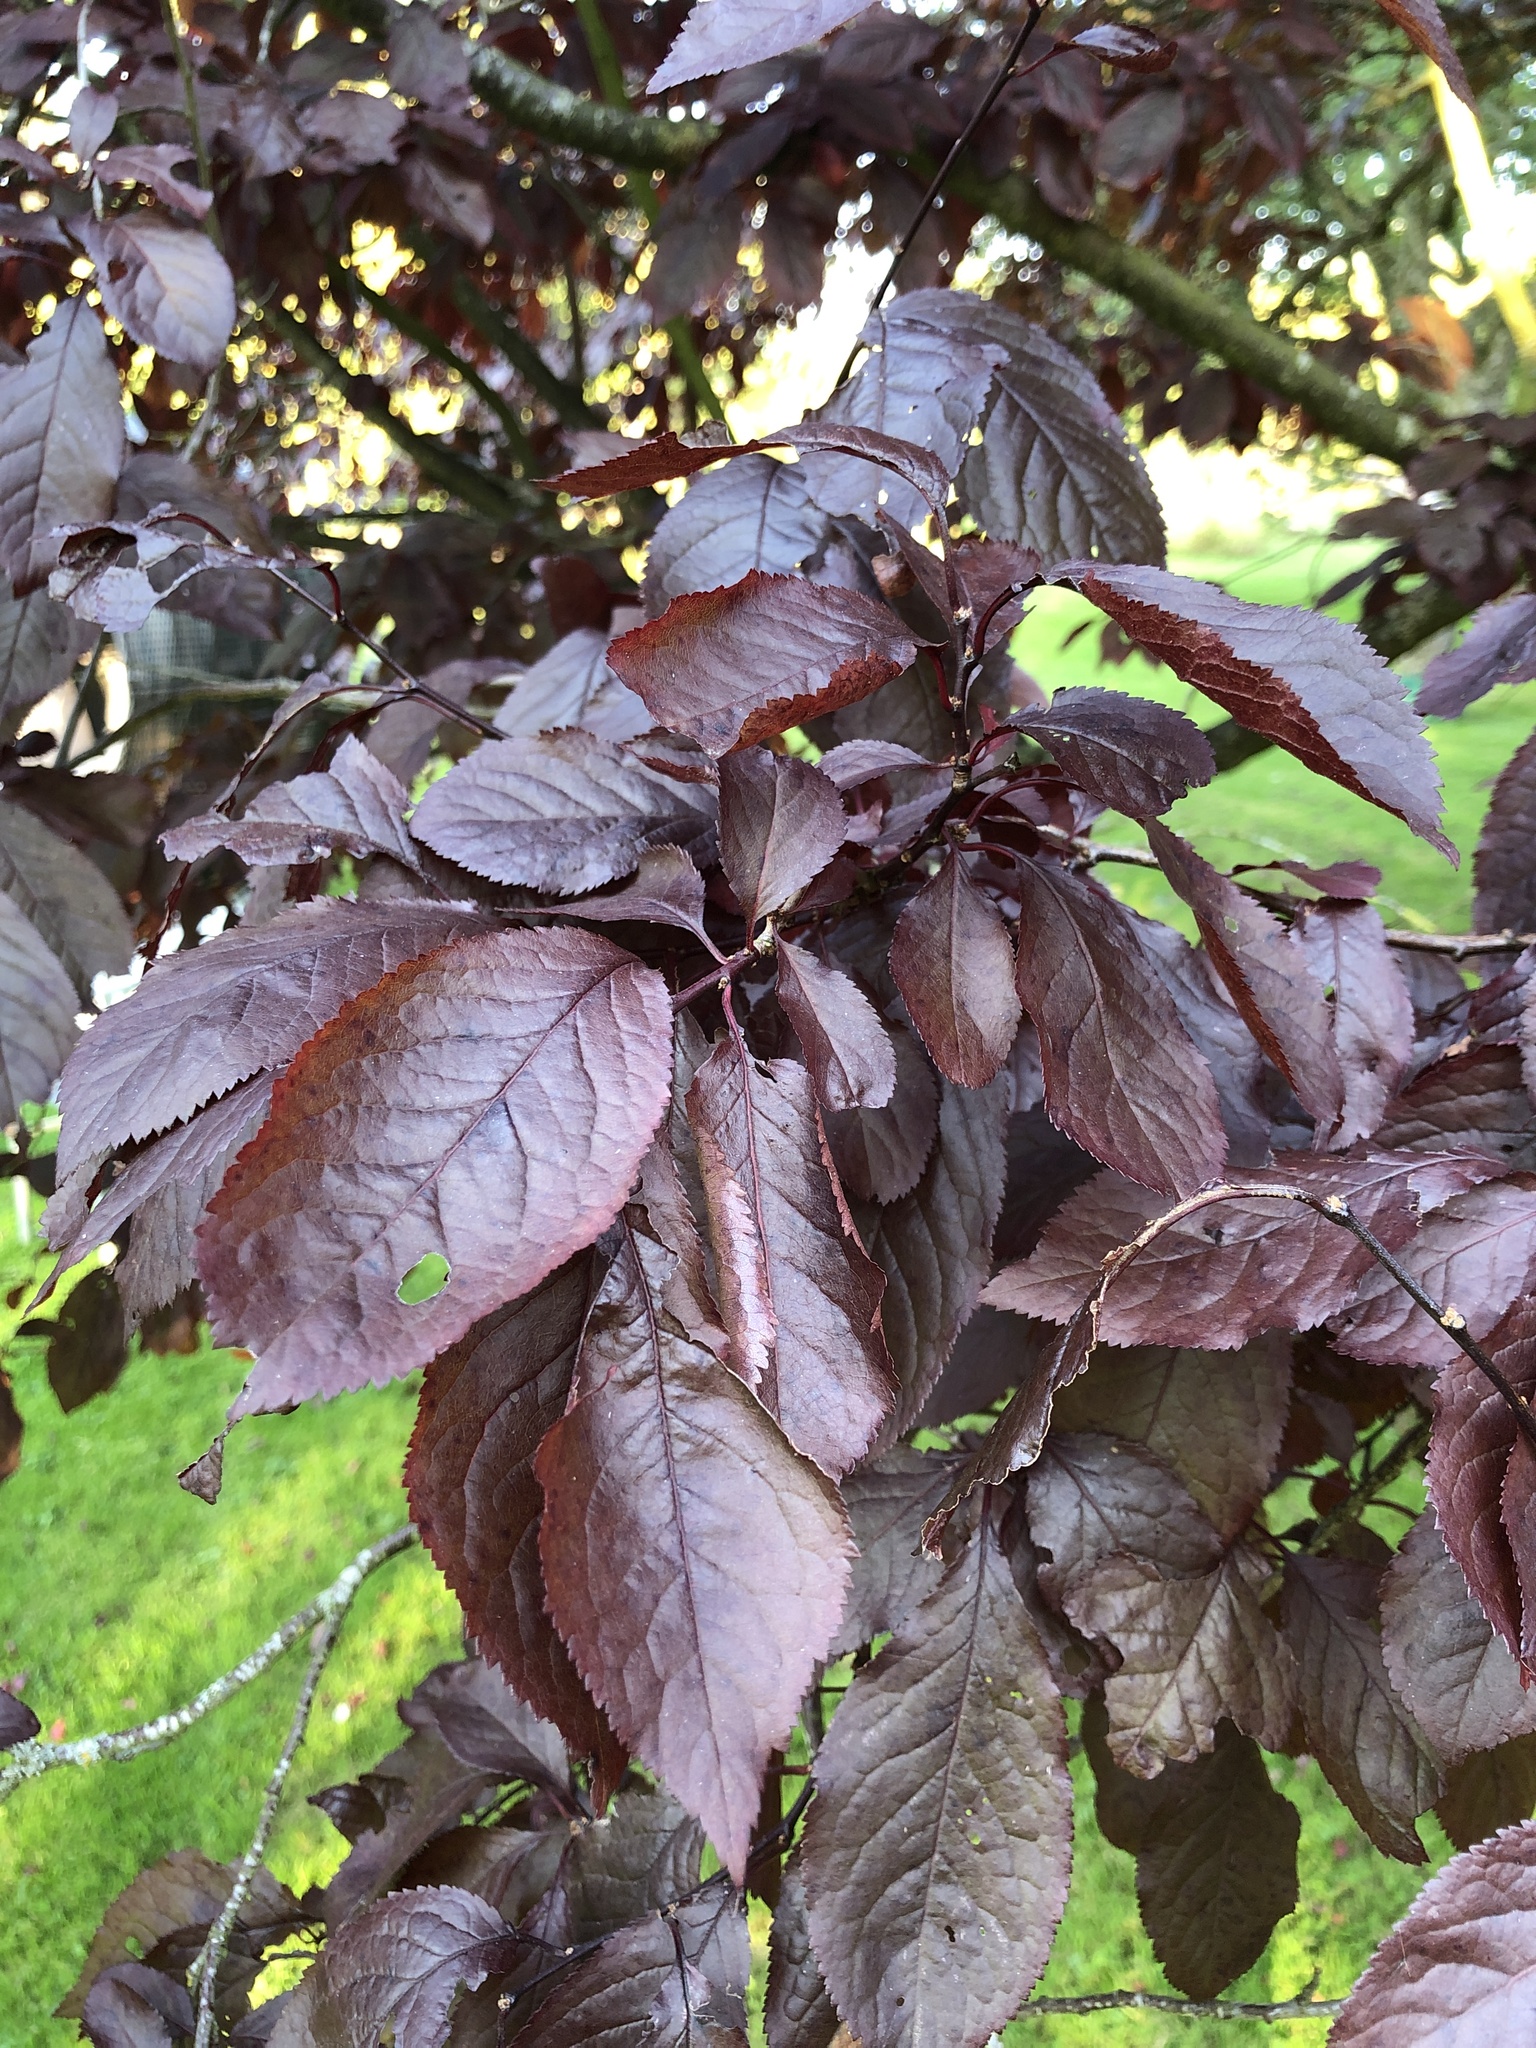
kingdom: Plantae
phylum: Tracheophyta
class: Magnoliopsida
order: Rosales
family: Rosaceae
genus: Prunus
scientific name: Prunus cerasifera
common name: Cherry plum
